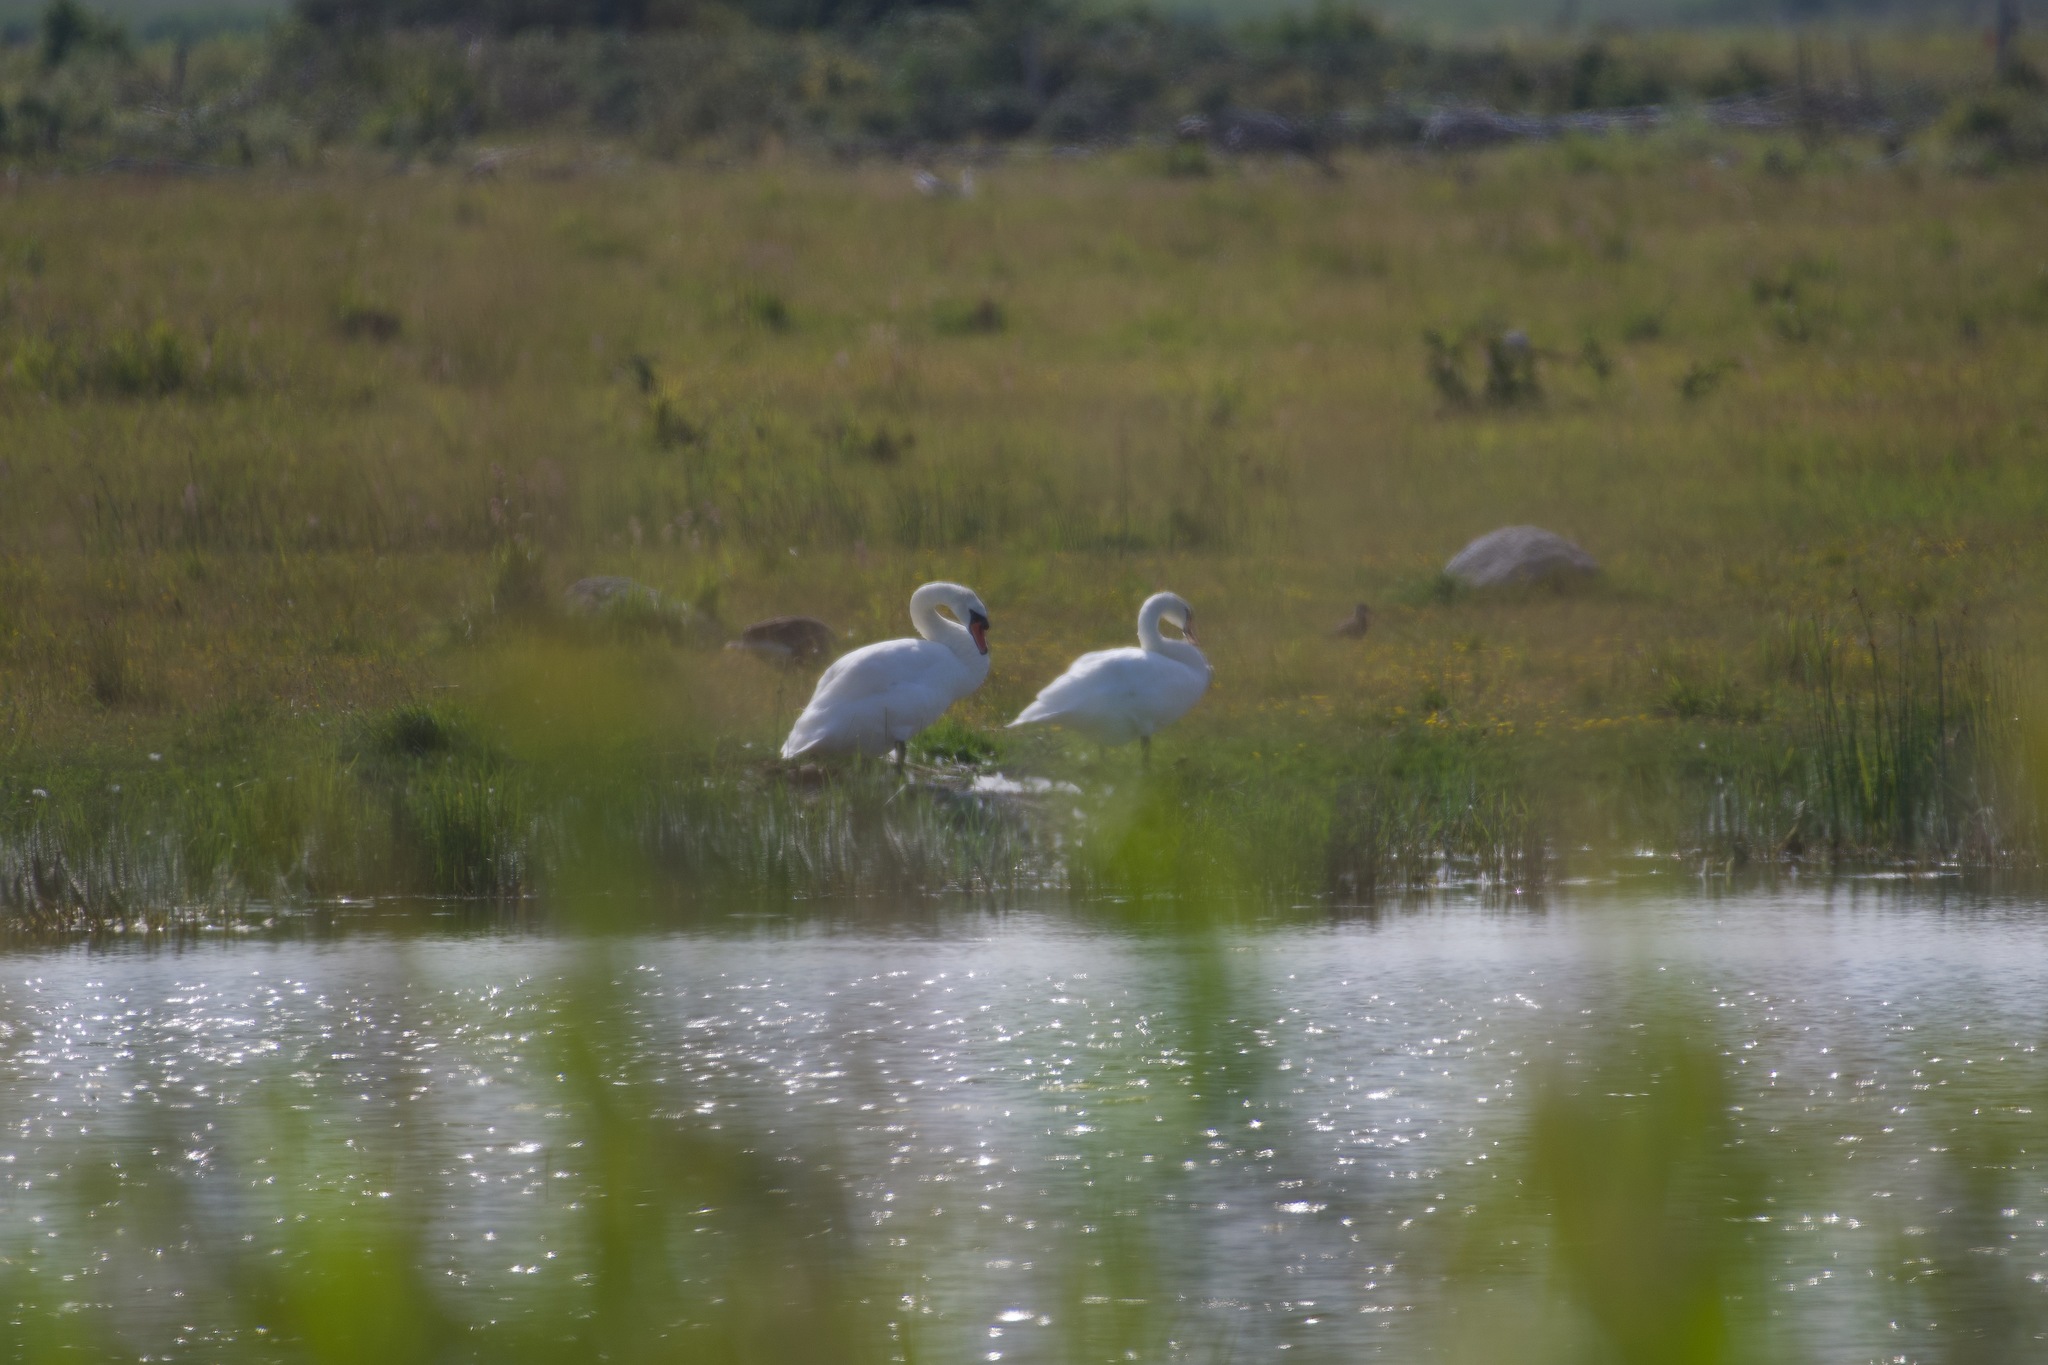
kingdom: Animalia
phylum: Chordata
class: Aves
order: Anseriformes
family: Anatidae
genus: Cygnus
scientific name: Cygnus olor
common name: Mute swan
